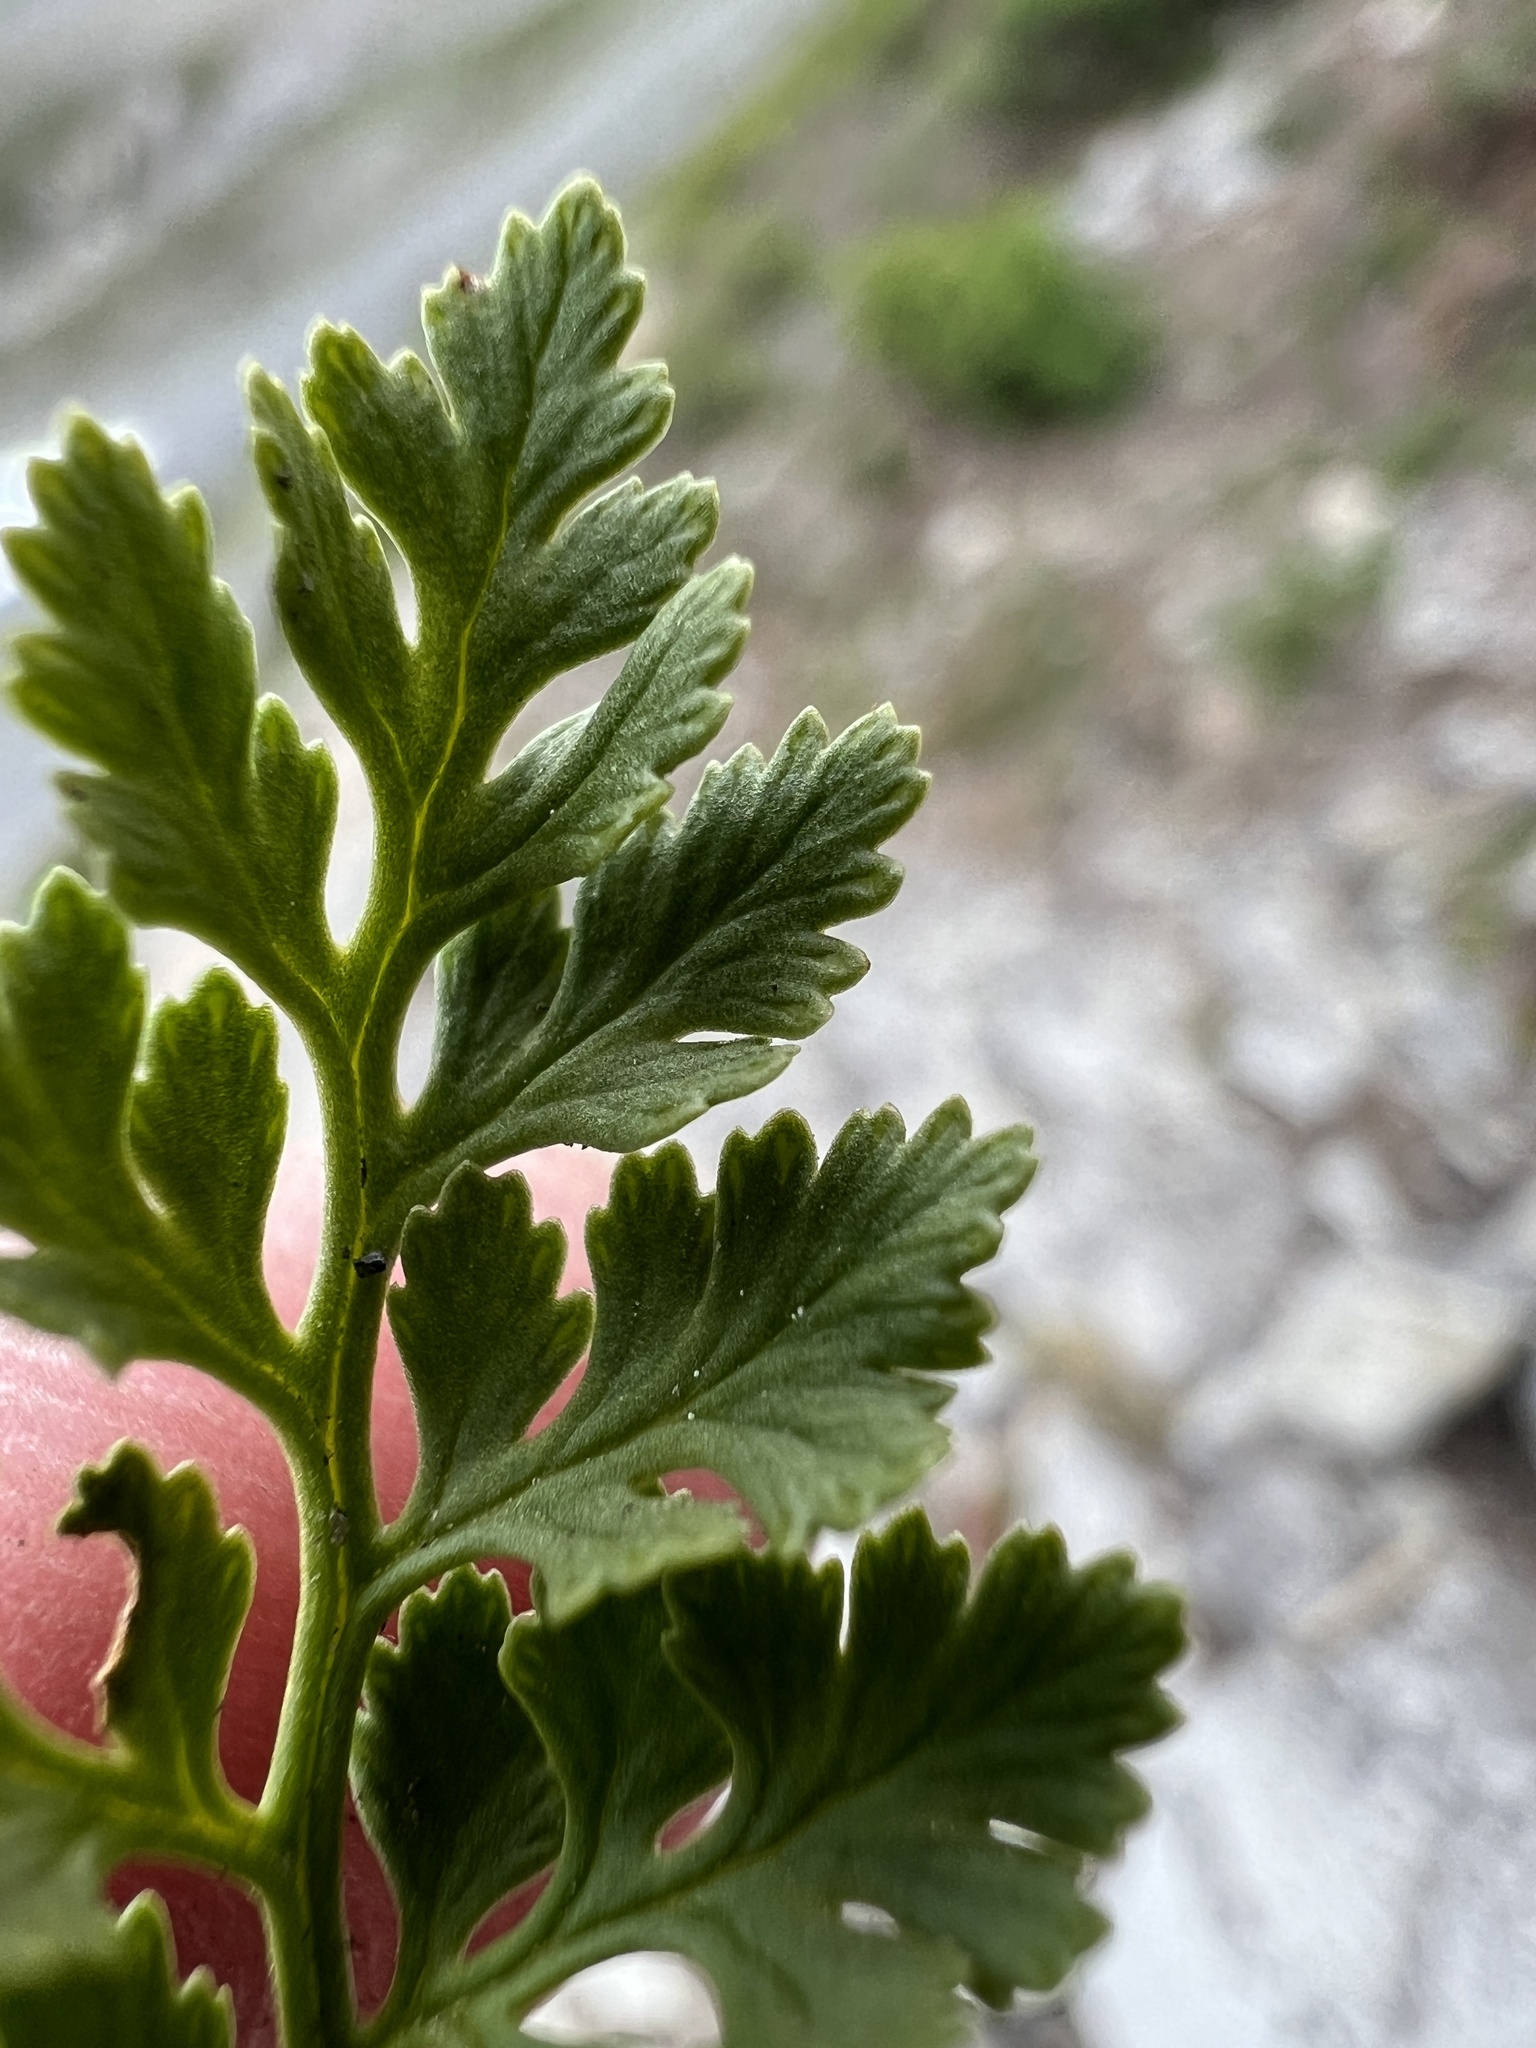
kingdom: Plantae
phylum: Tracheophyta
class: Polypodiopsida
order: Polypodiales
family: Pteridaceae
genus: Cryptogramma
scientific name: Cryptogramma acrostichoides
